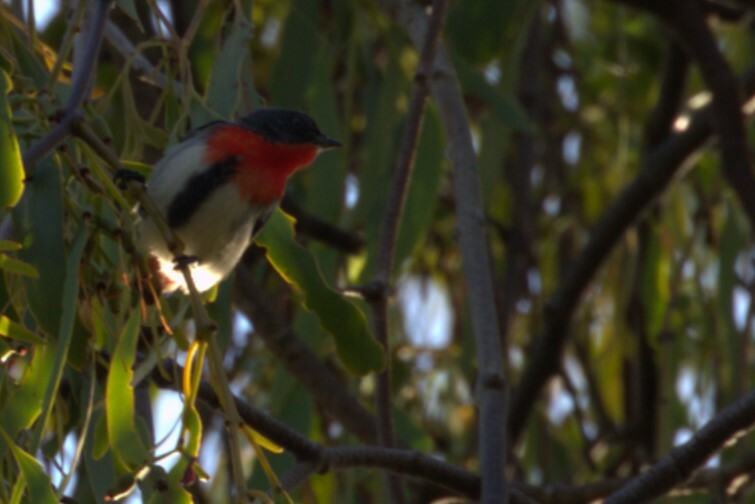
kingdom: Animalia
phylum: Chordata
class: Aves
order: Passeriformes
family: Dicaeidae
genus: Dicaeum
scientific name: Dicaeum hirundinaceum
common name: Mistletoebird
